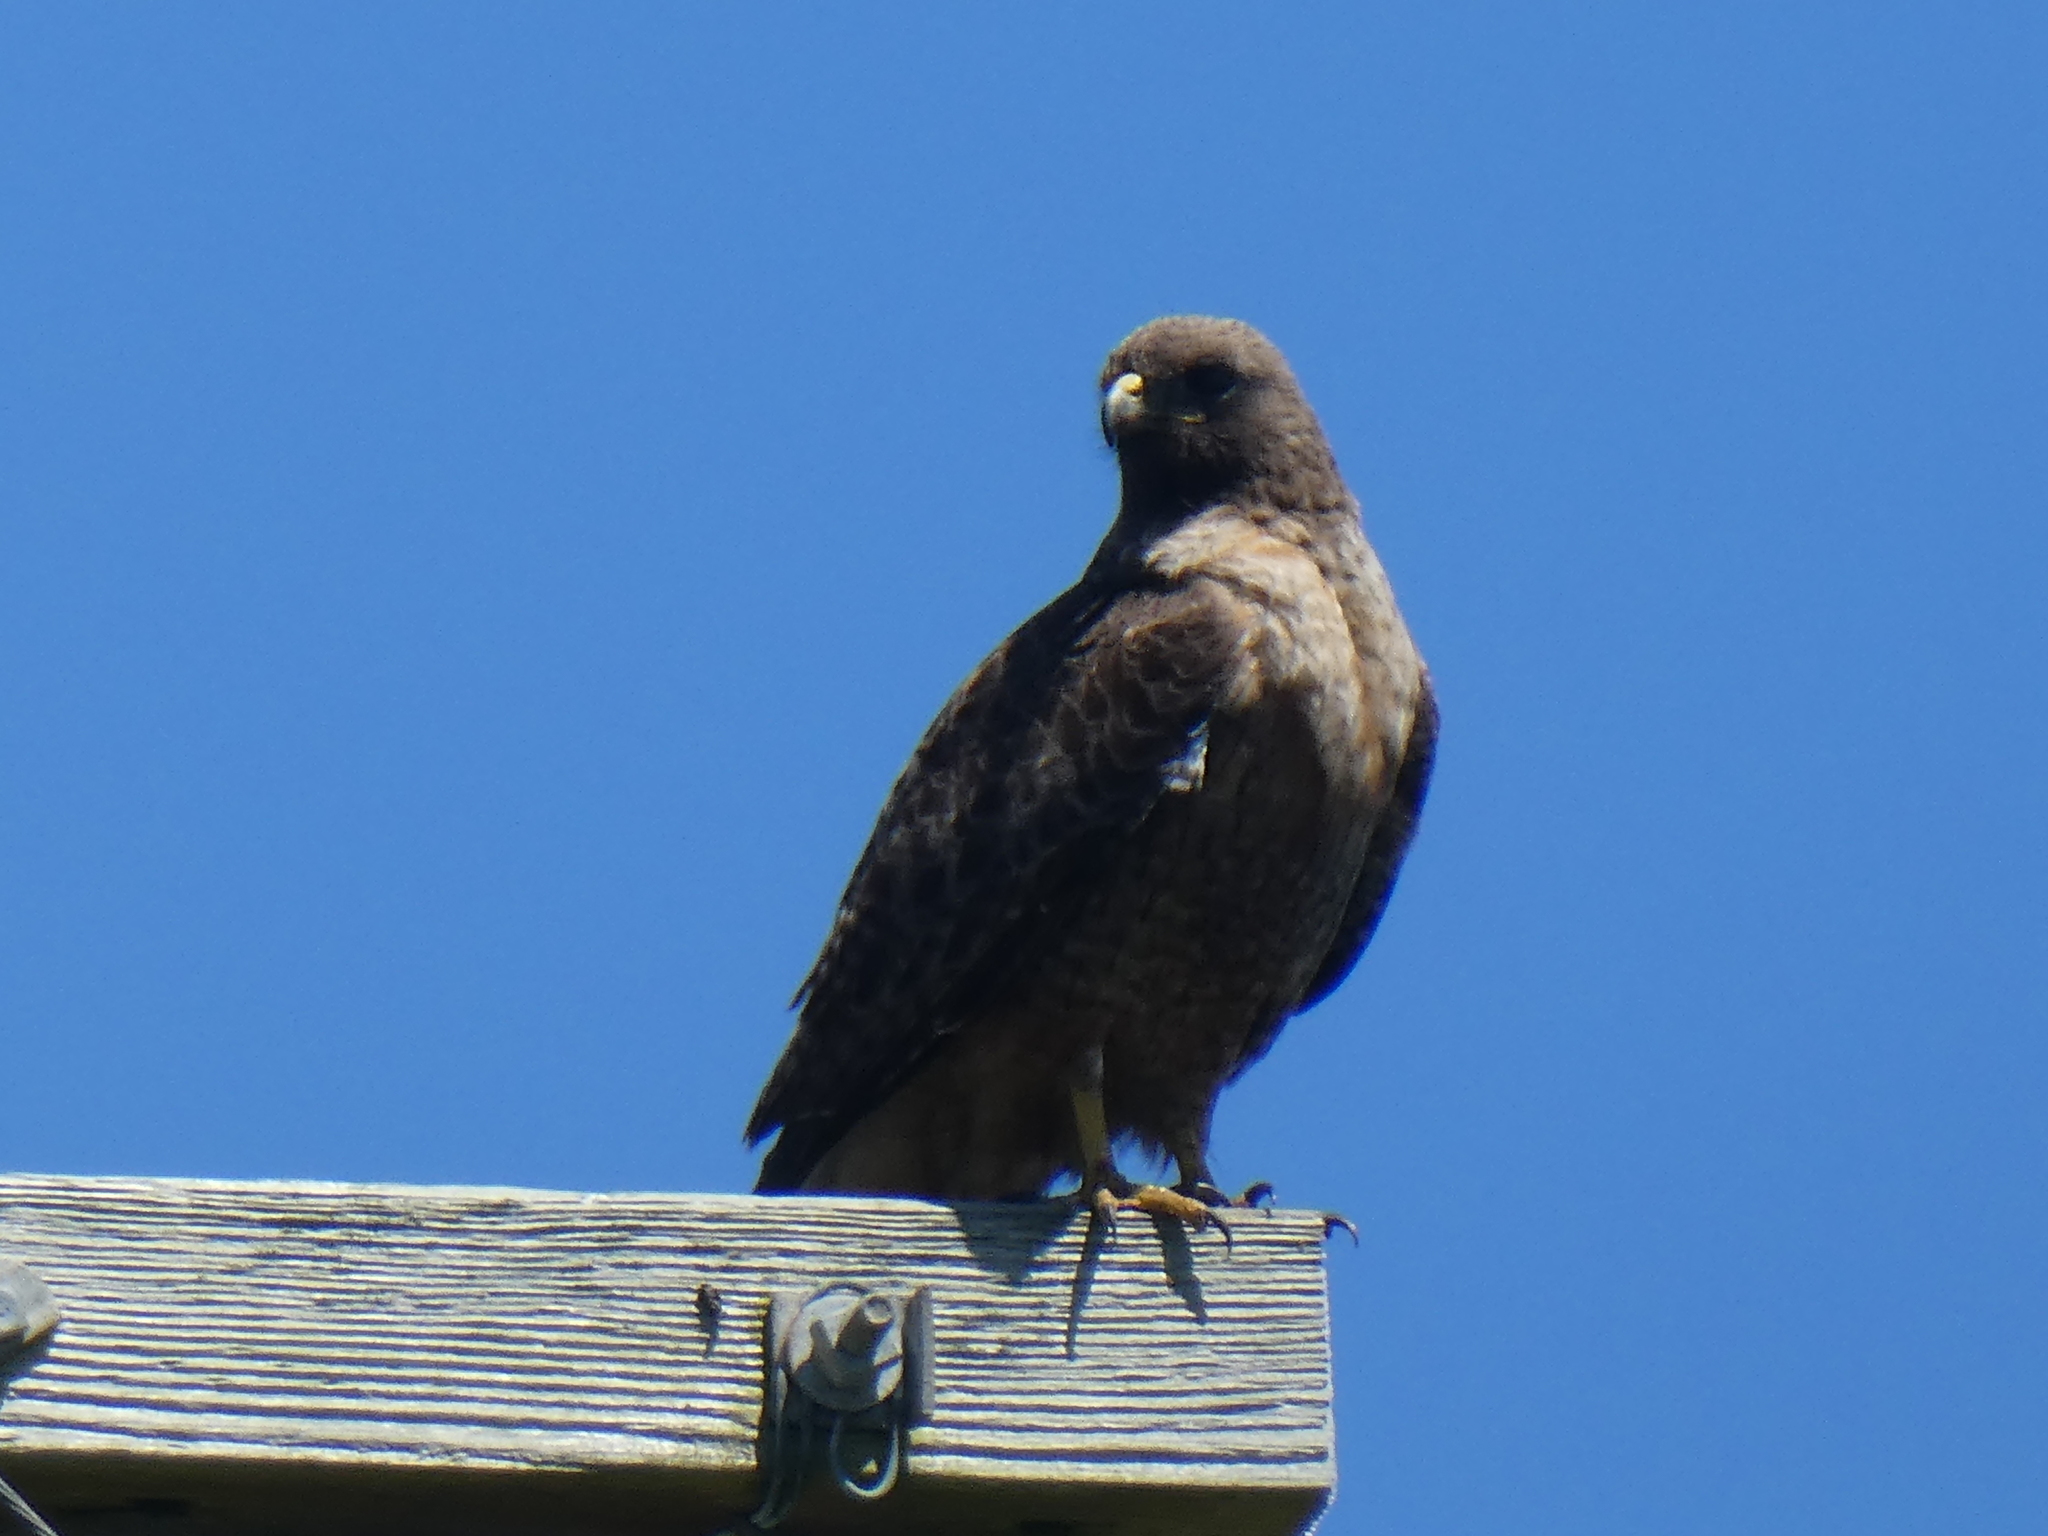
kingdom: Animalia
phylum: Chordata
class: Aves
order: Accipitriformes
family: Accipitridae
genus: Buteo
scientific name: Buteo jamaicensis
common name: Red-tailed hawk
